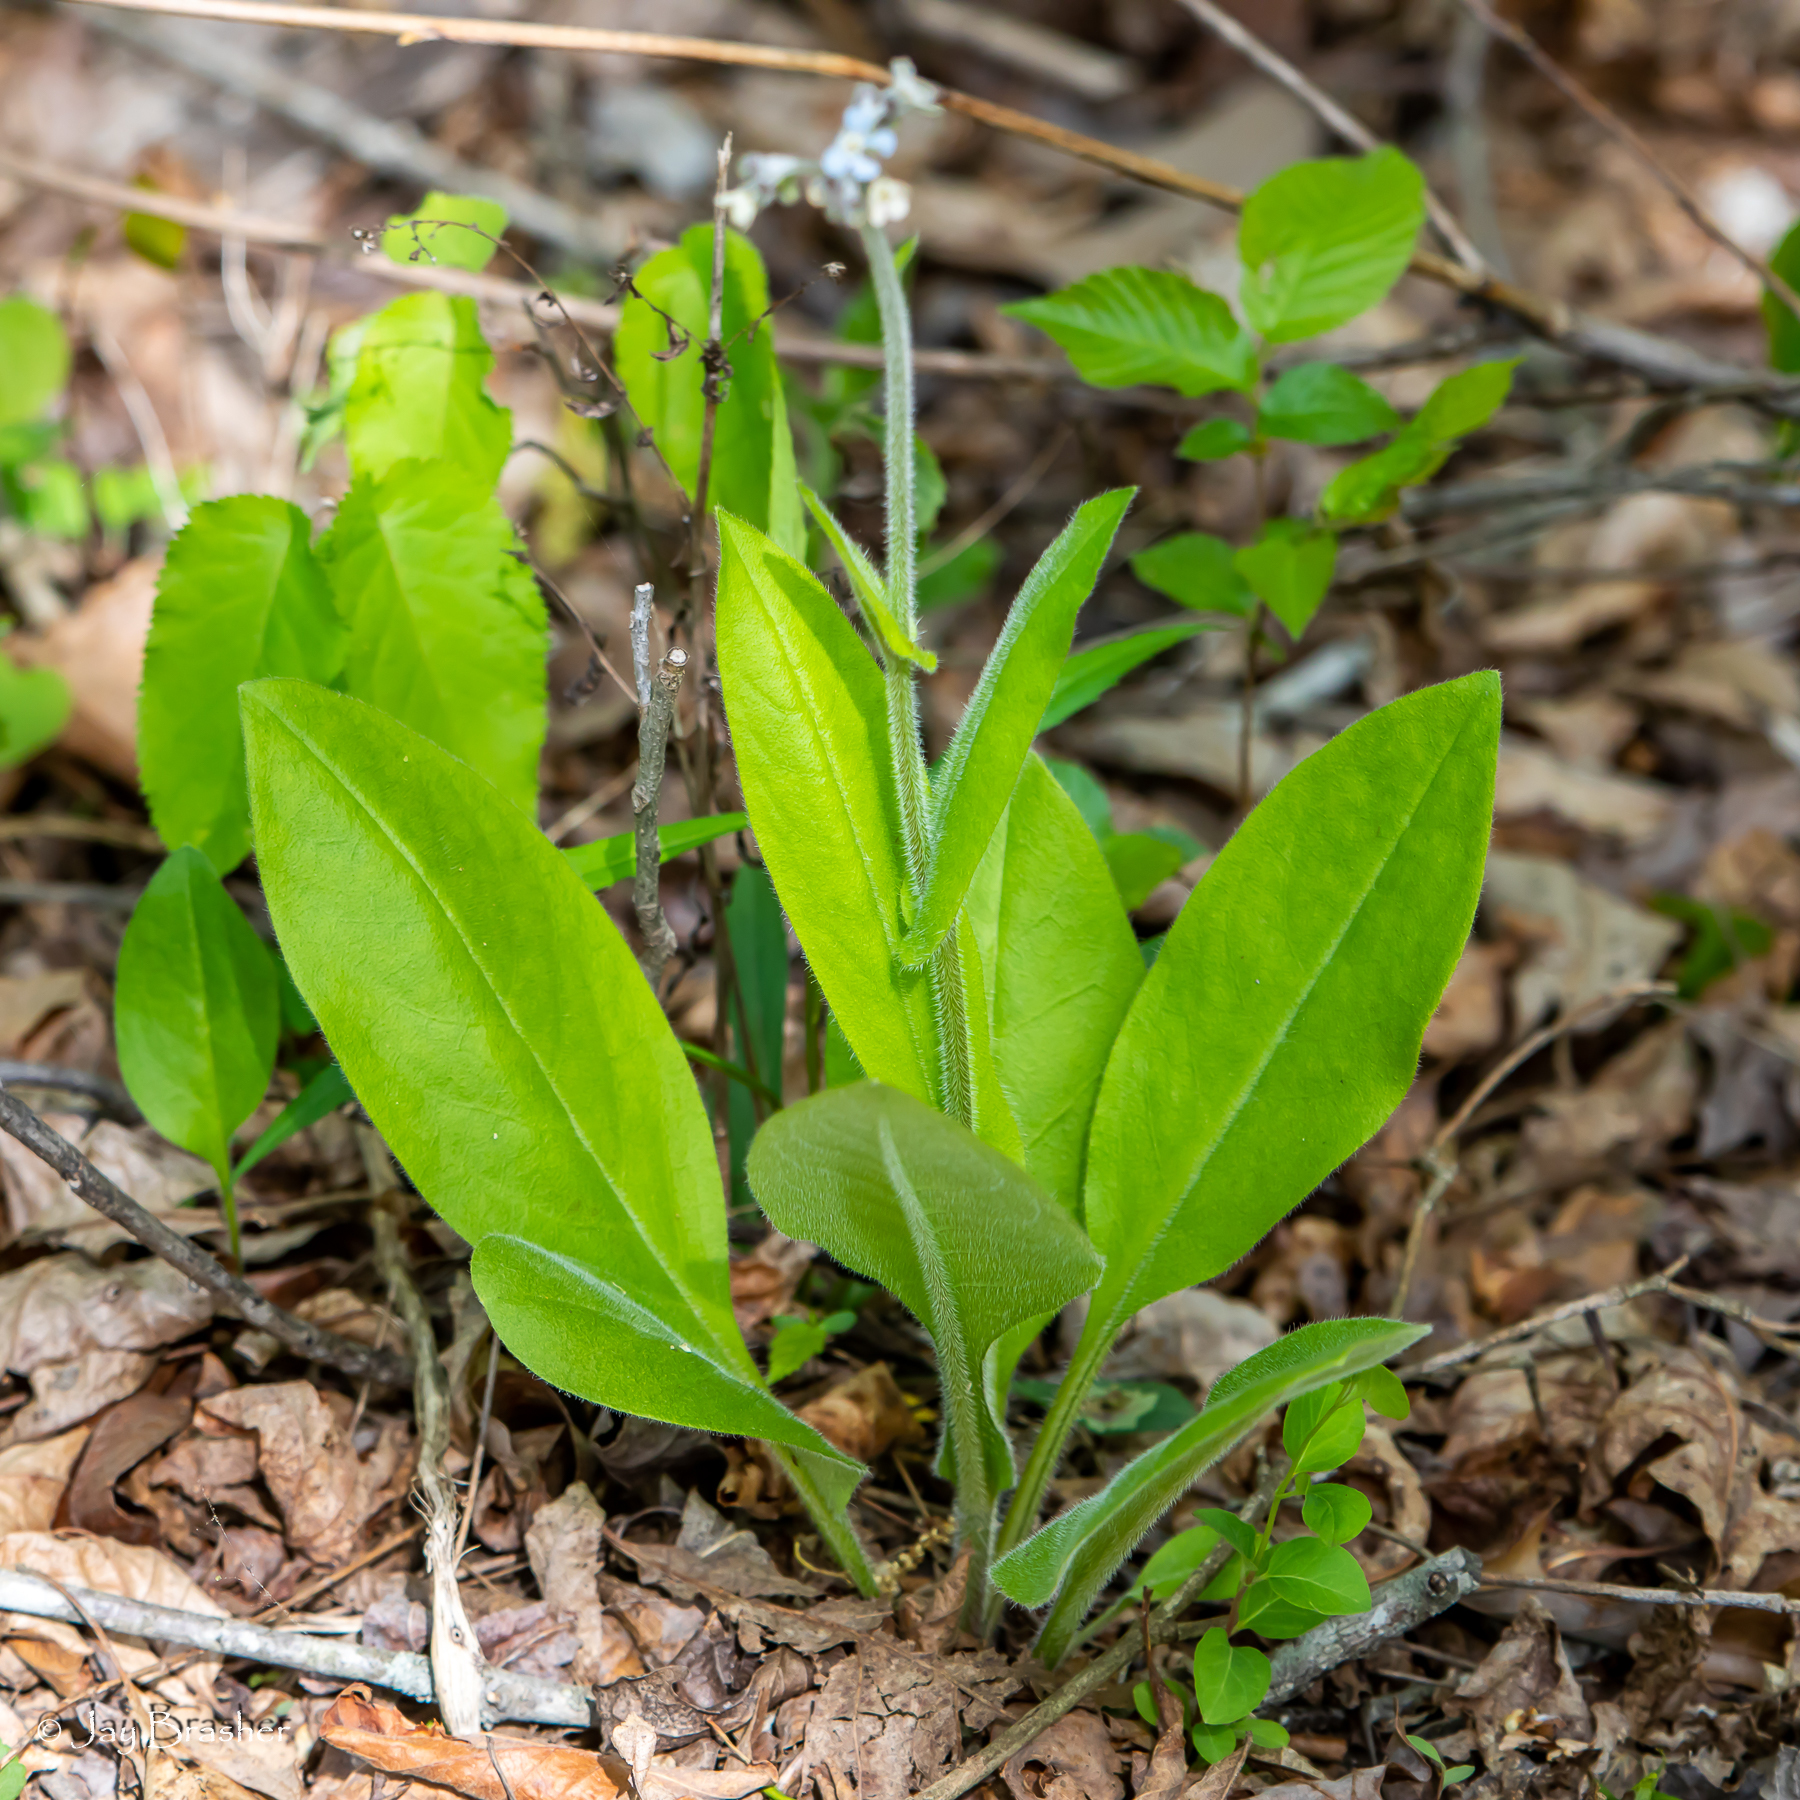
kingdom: Plantae
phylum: Tracheophyta
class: Magnoliopsida
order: Boraginales
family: Boraginaceae
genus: Andersonglossum
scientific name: Andersonglossum virginianum
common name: Wild comfrey
